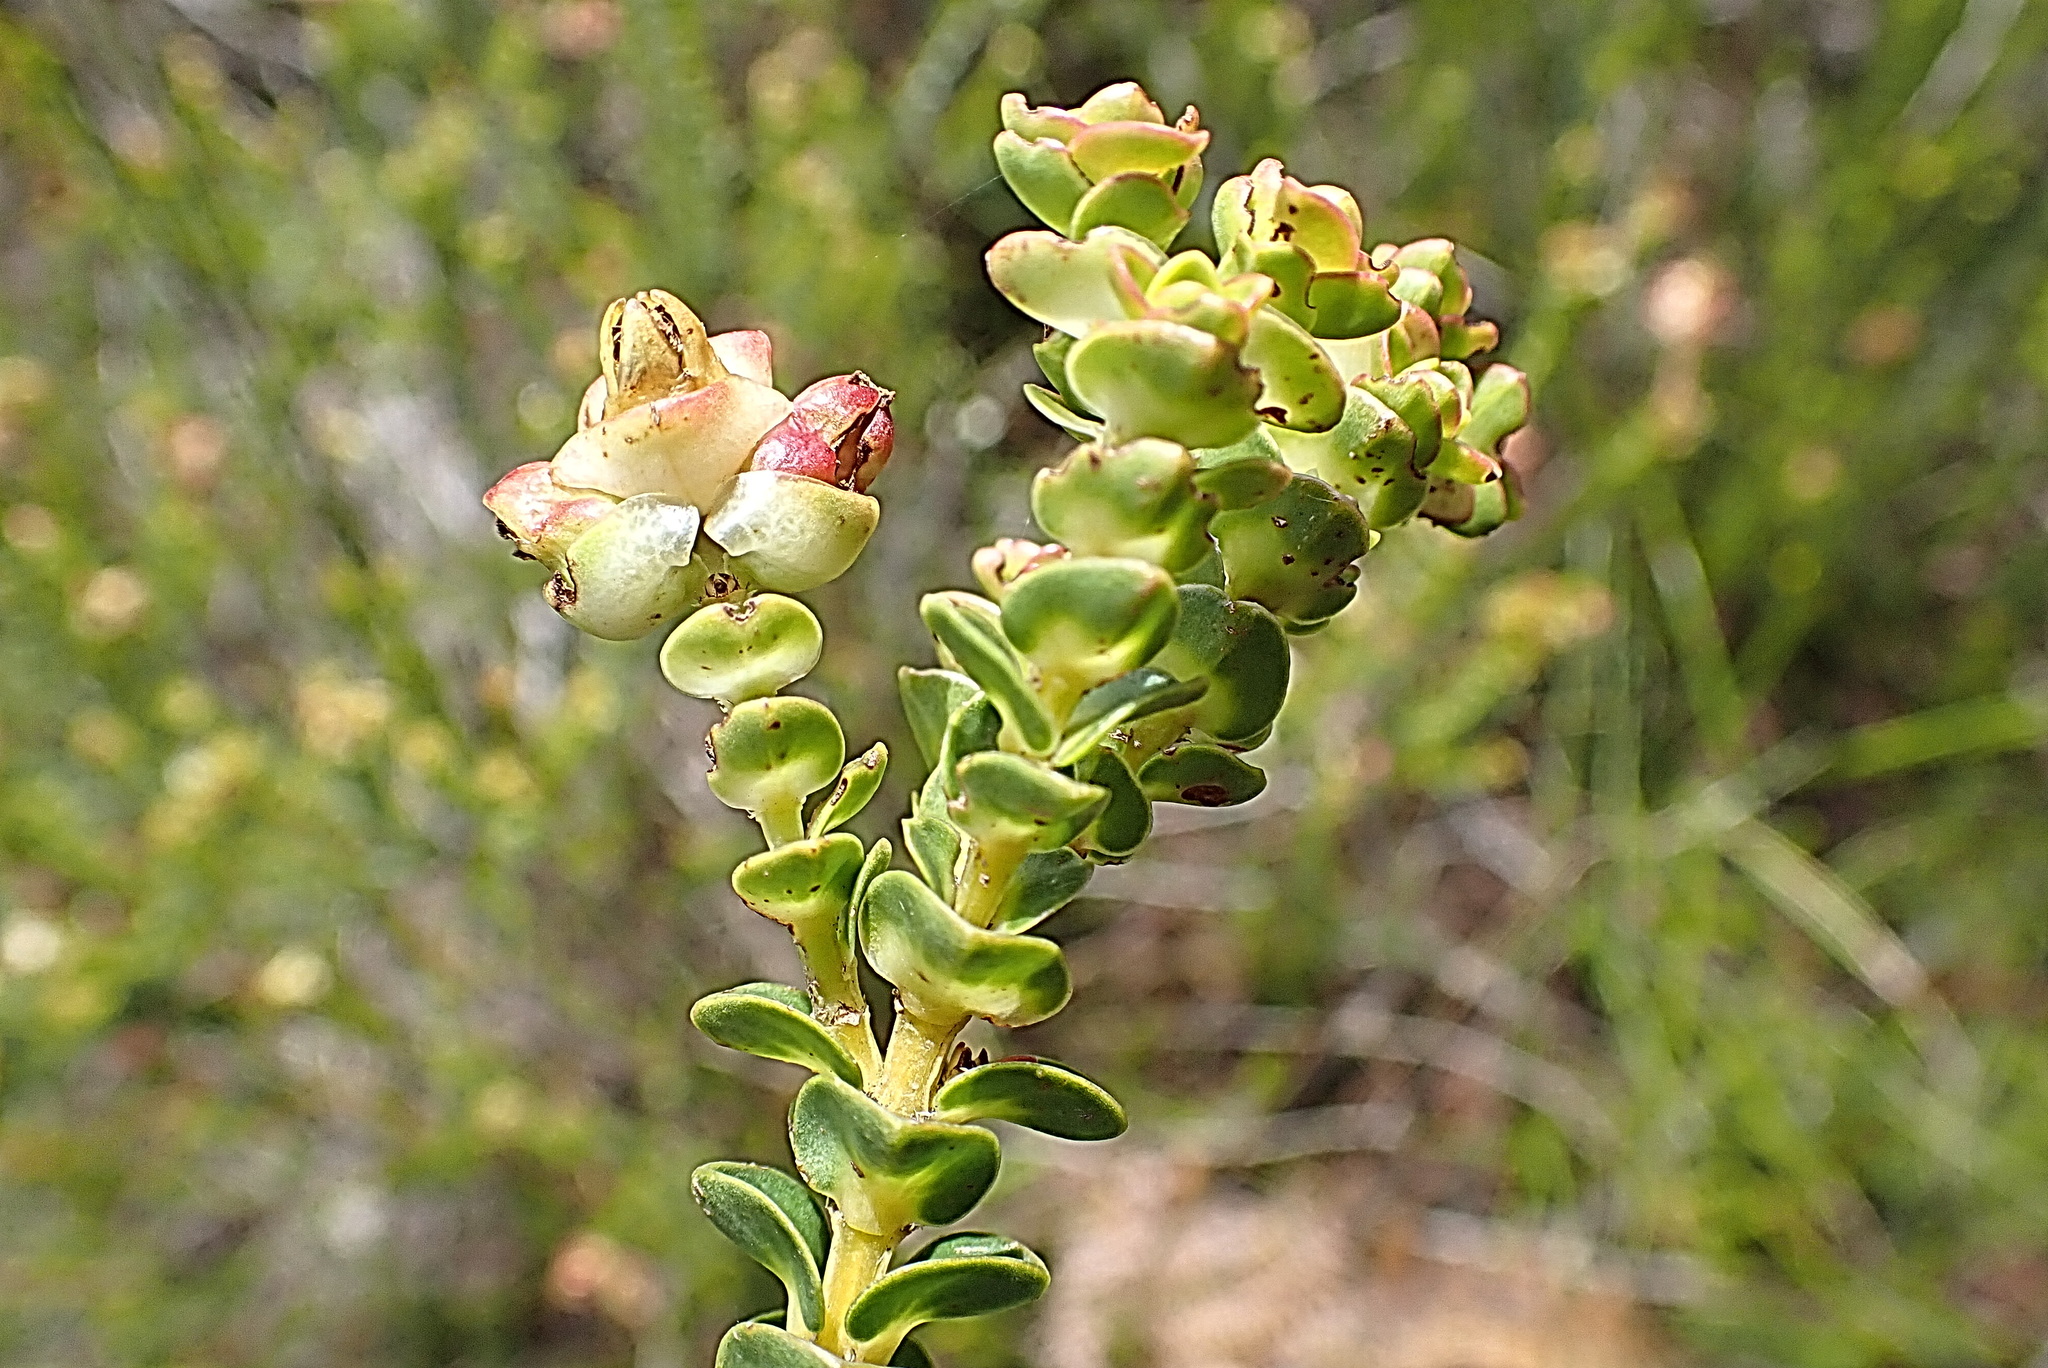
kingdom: Plantae
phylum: Tracheophyta
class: Magnoliopsida
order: Myrtales
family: Penaeaceae
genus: Penaea
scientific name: Penaea cneorum
